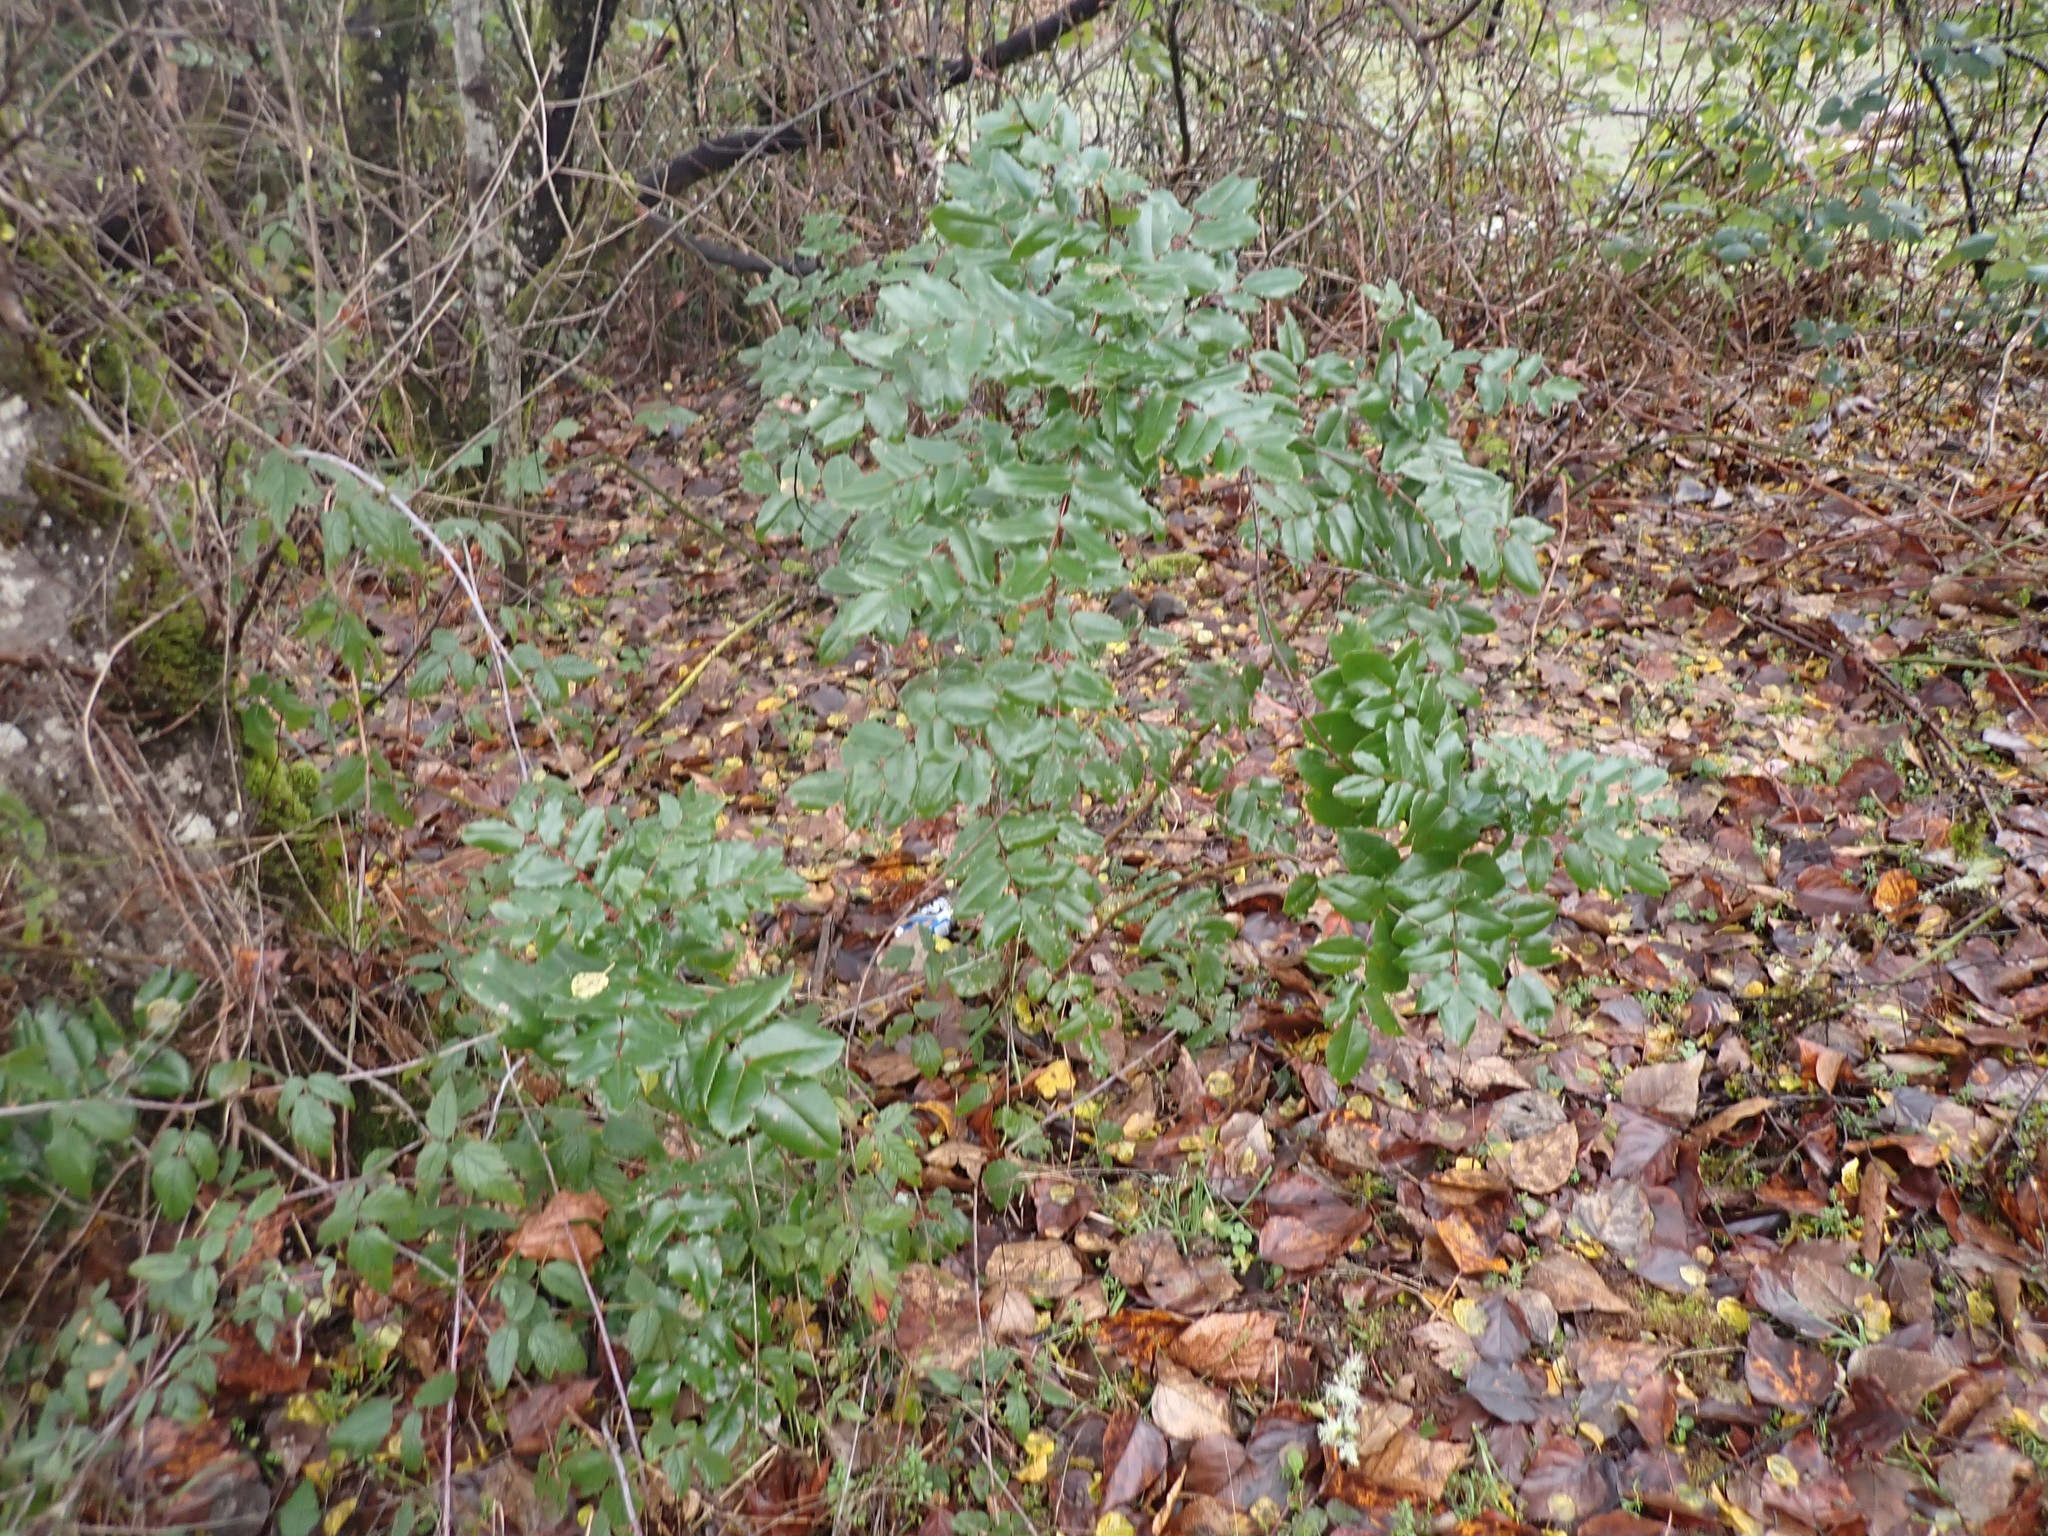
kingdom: Plantae
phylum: Tracheophyta
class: Magnoliopsida
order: Ranunculales
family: Berberidaceae
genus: Mahonia
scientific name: Mahonia aquifolium
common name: Oregon-grape
